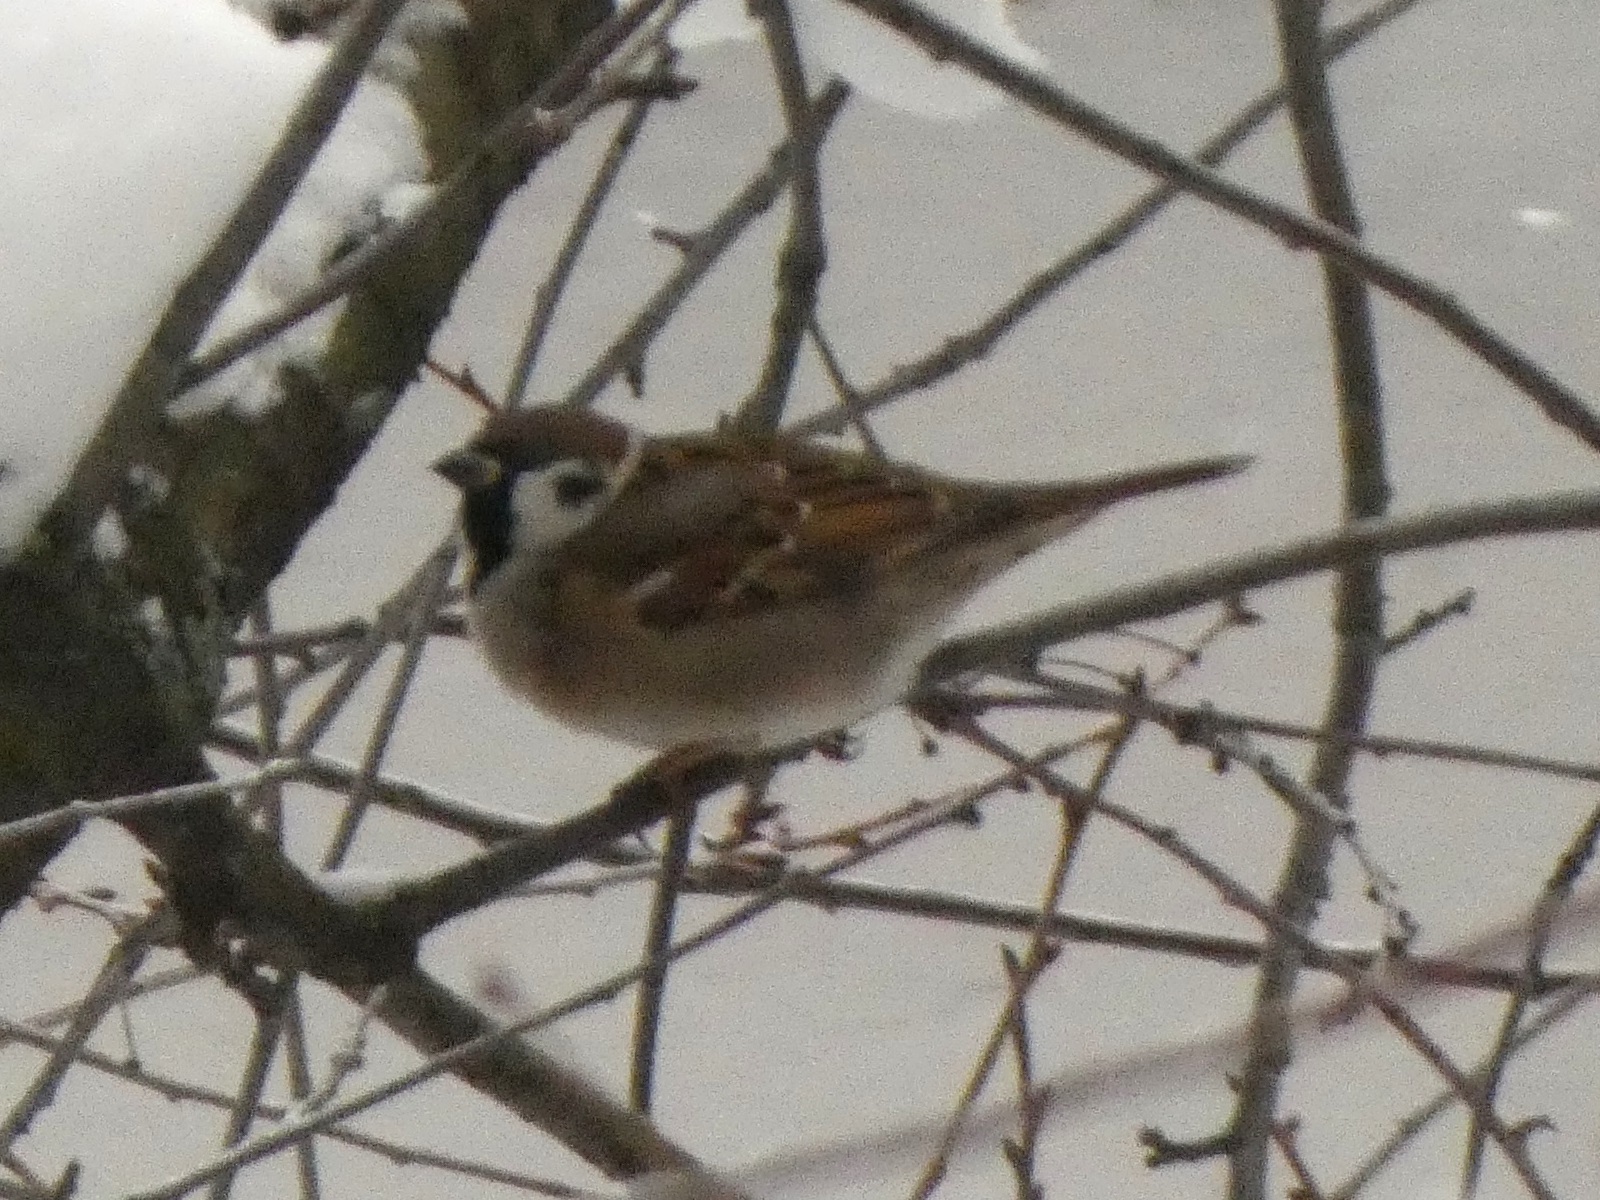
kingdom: Animalia
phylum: Chordata
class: Aves
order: Passeriformes
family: Passeridae
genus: Passer
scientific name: Passer montanus
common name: Eurasian tree sparrow
